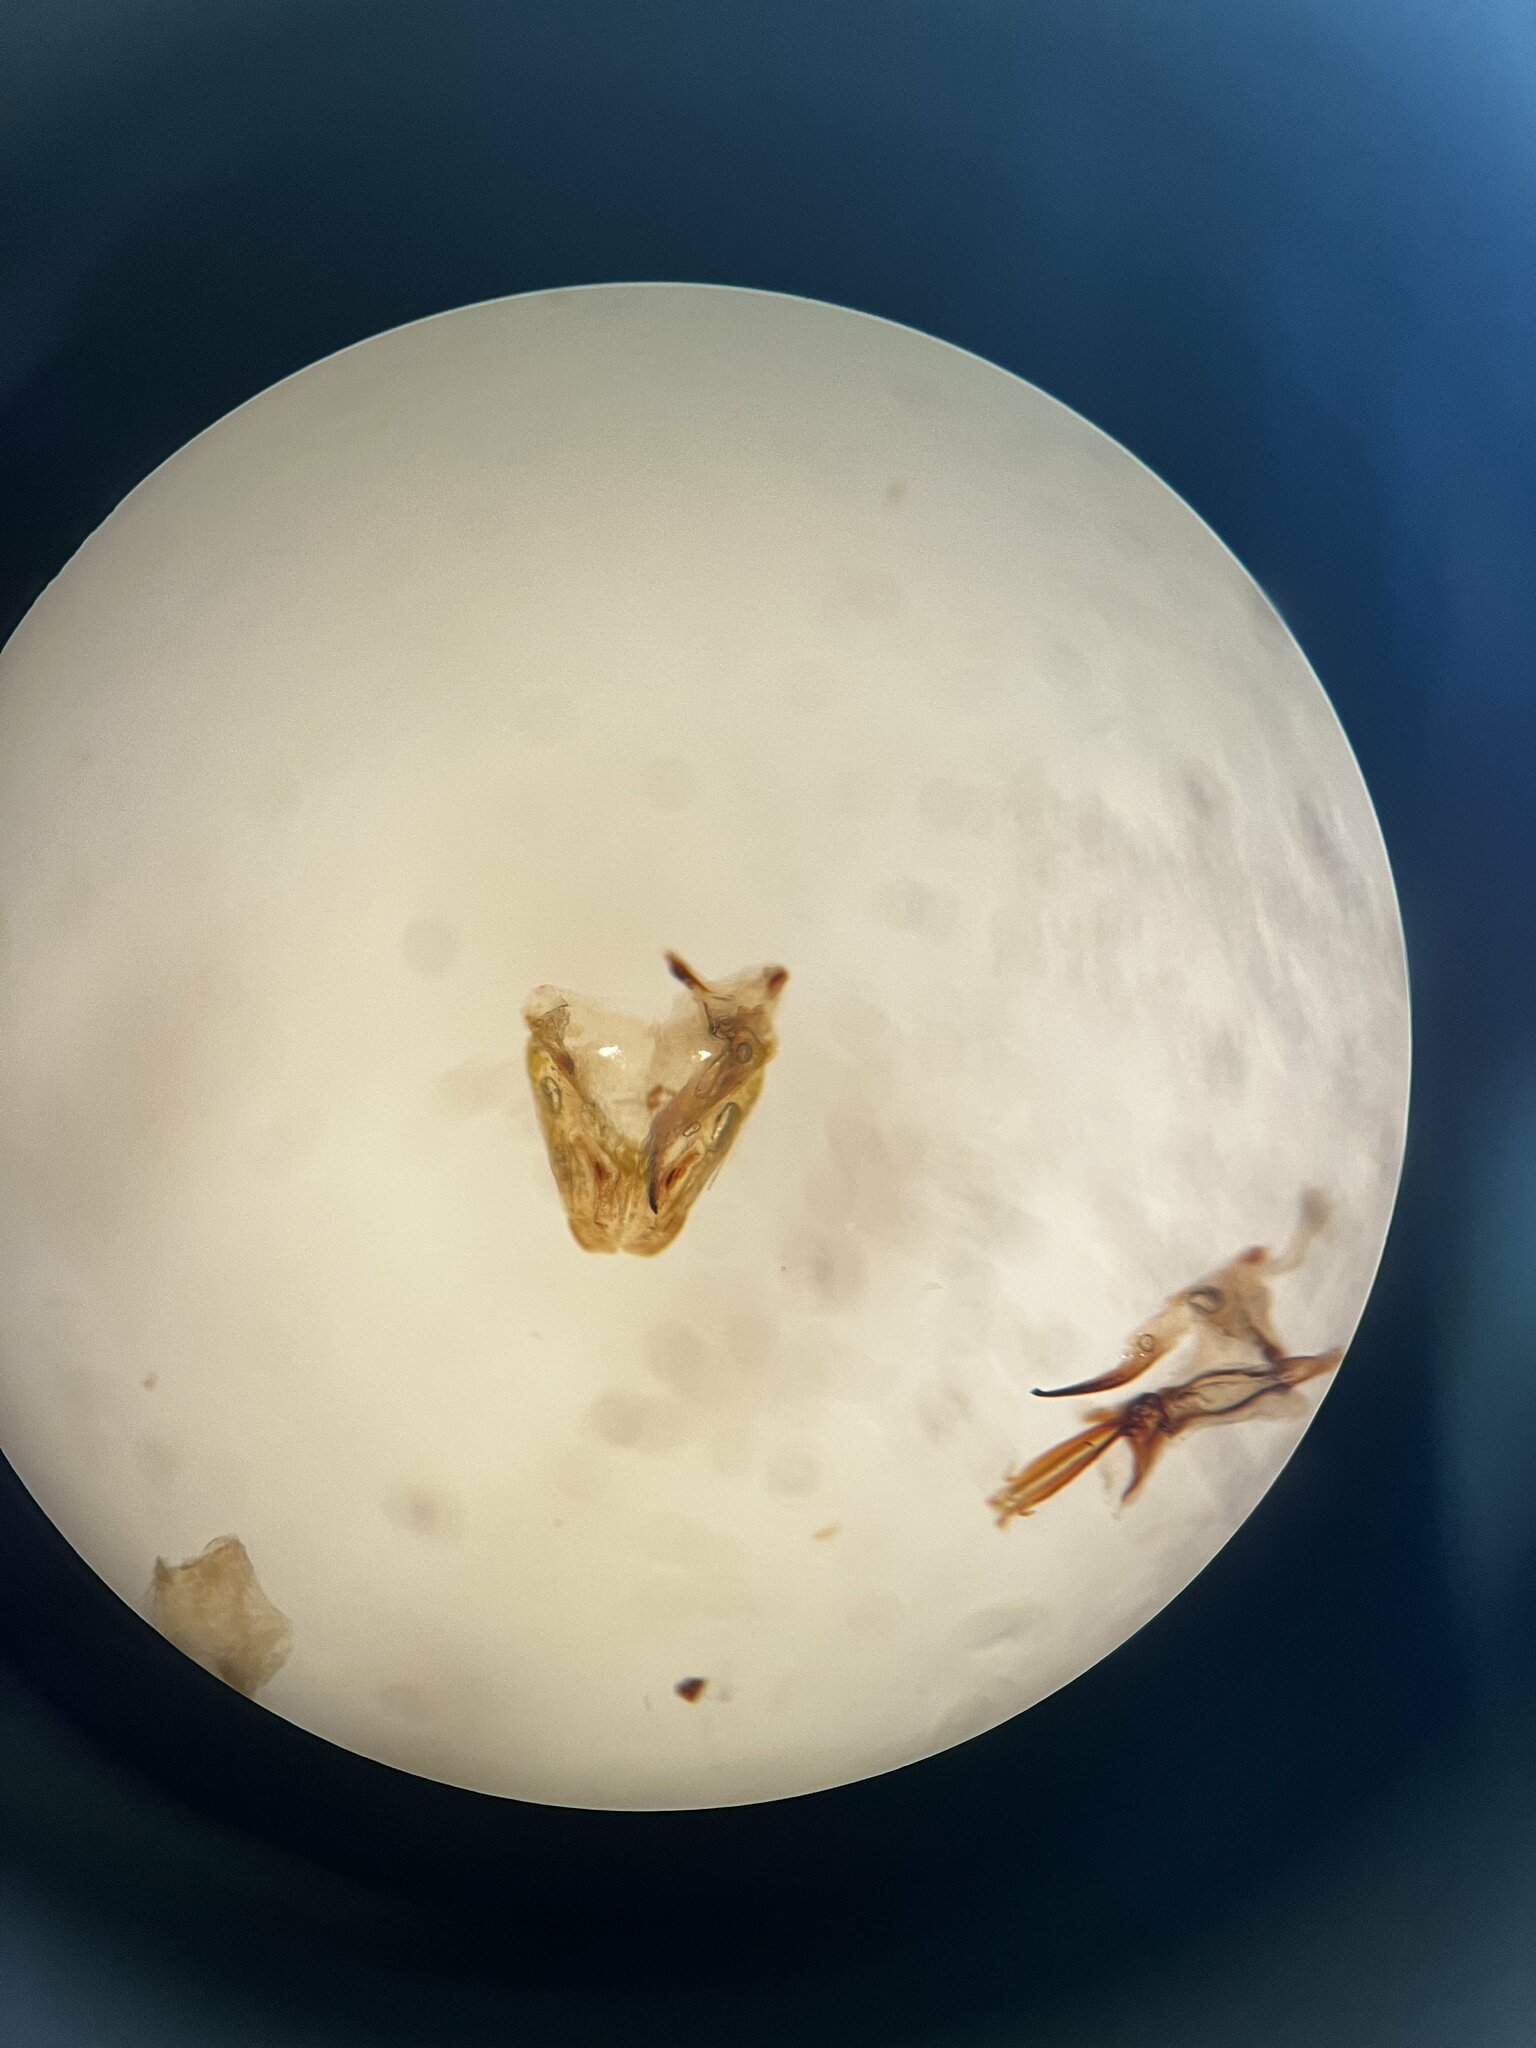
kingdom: Animalia
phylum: Arthropoda
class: Insecta
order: Hemiptera
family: Cicadellidae
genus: Adarrus
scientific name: Adarrus multinotatus
